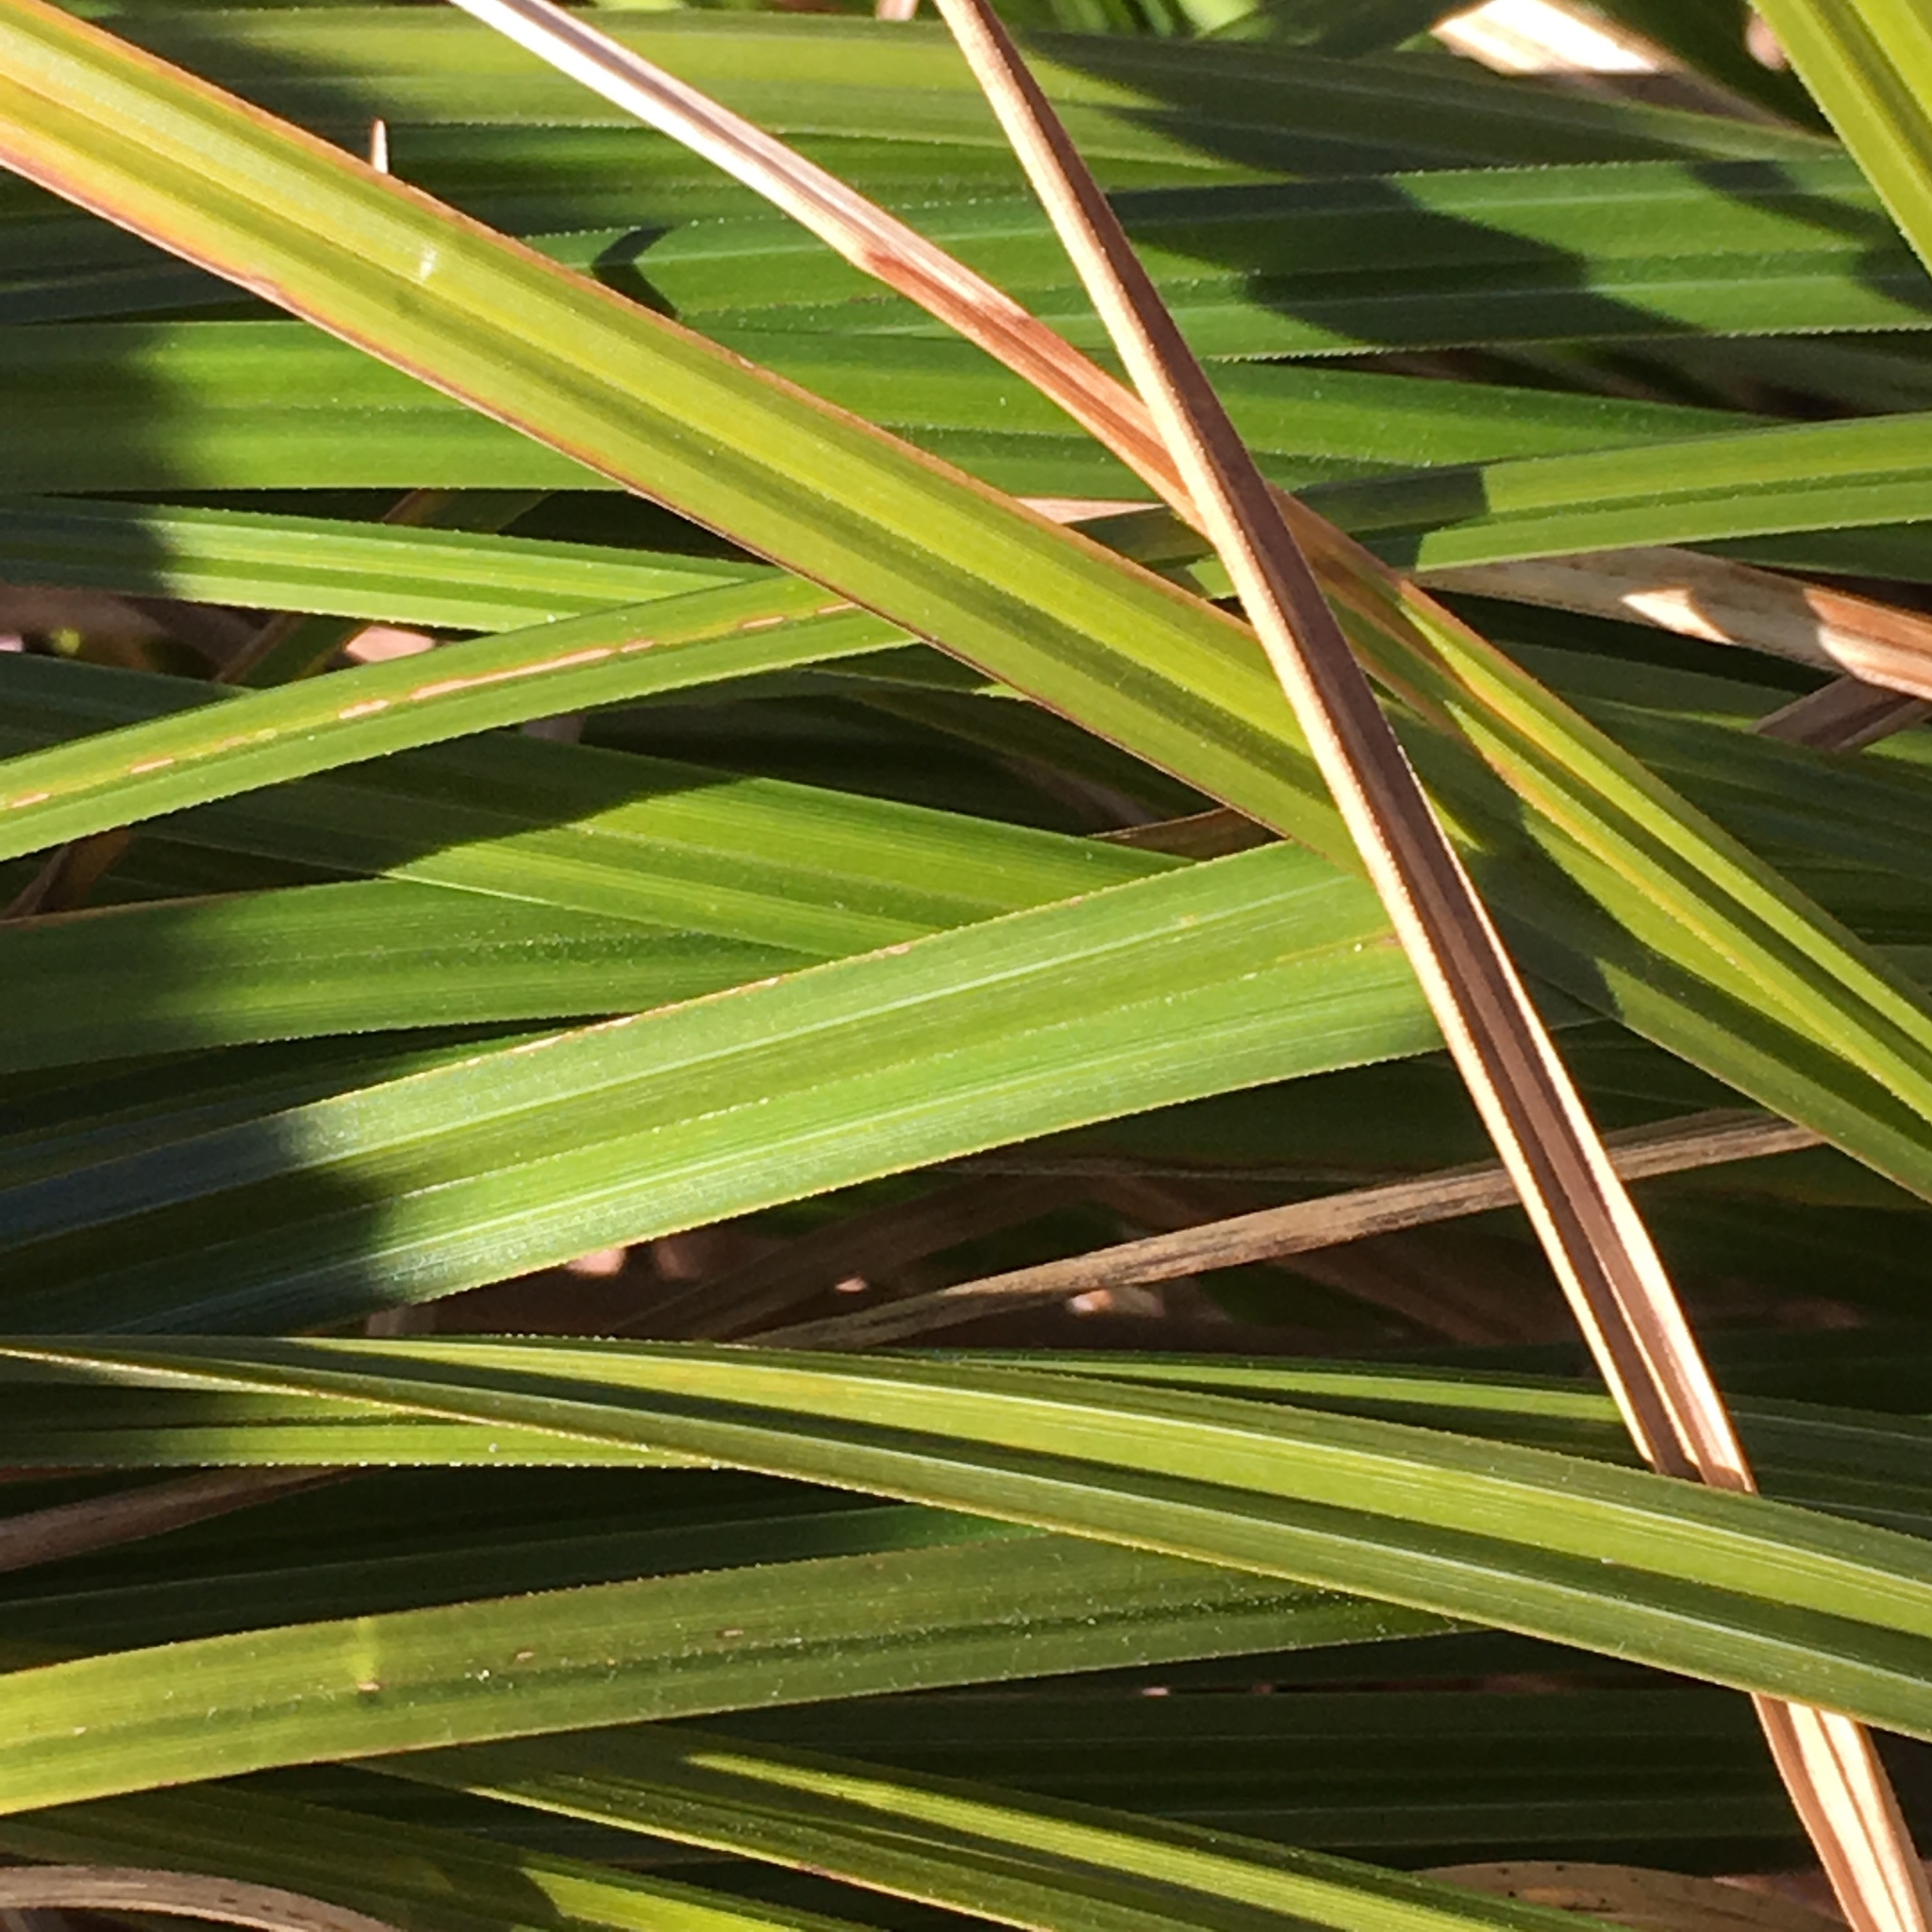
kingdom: Plantae
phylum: Tracheophyta
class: Liliopsida
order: Poales
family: Cyperaceae
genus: Carex
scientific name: Carex obnupta
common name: Slough sedge
